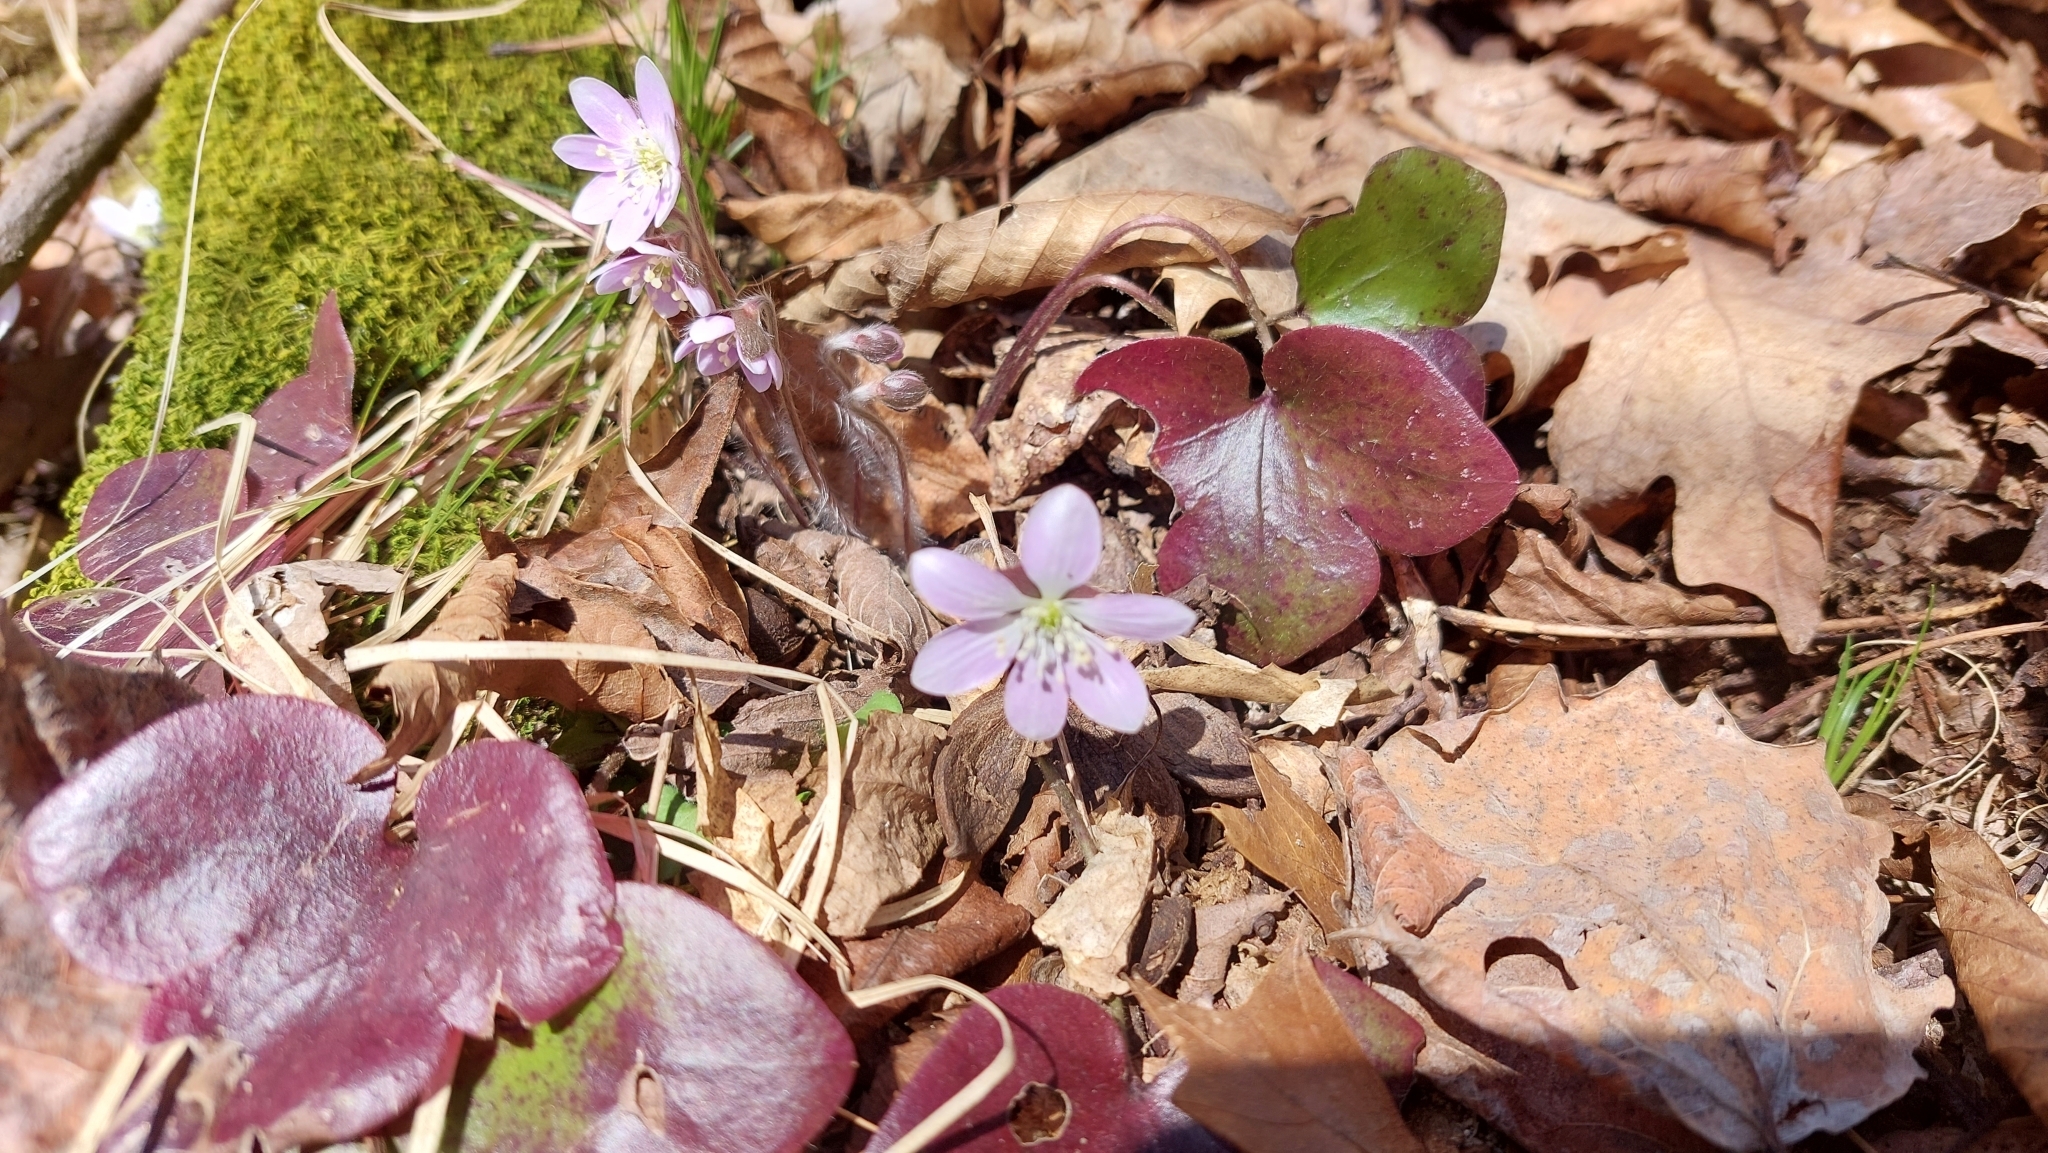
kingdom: Plantae
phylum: Tracheophyta
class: Magnoliopsida
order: Ranunculales
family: Ranunculaceae
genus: Hepatica
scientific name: Hepatica americana
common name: American hepatica
